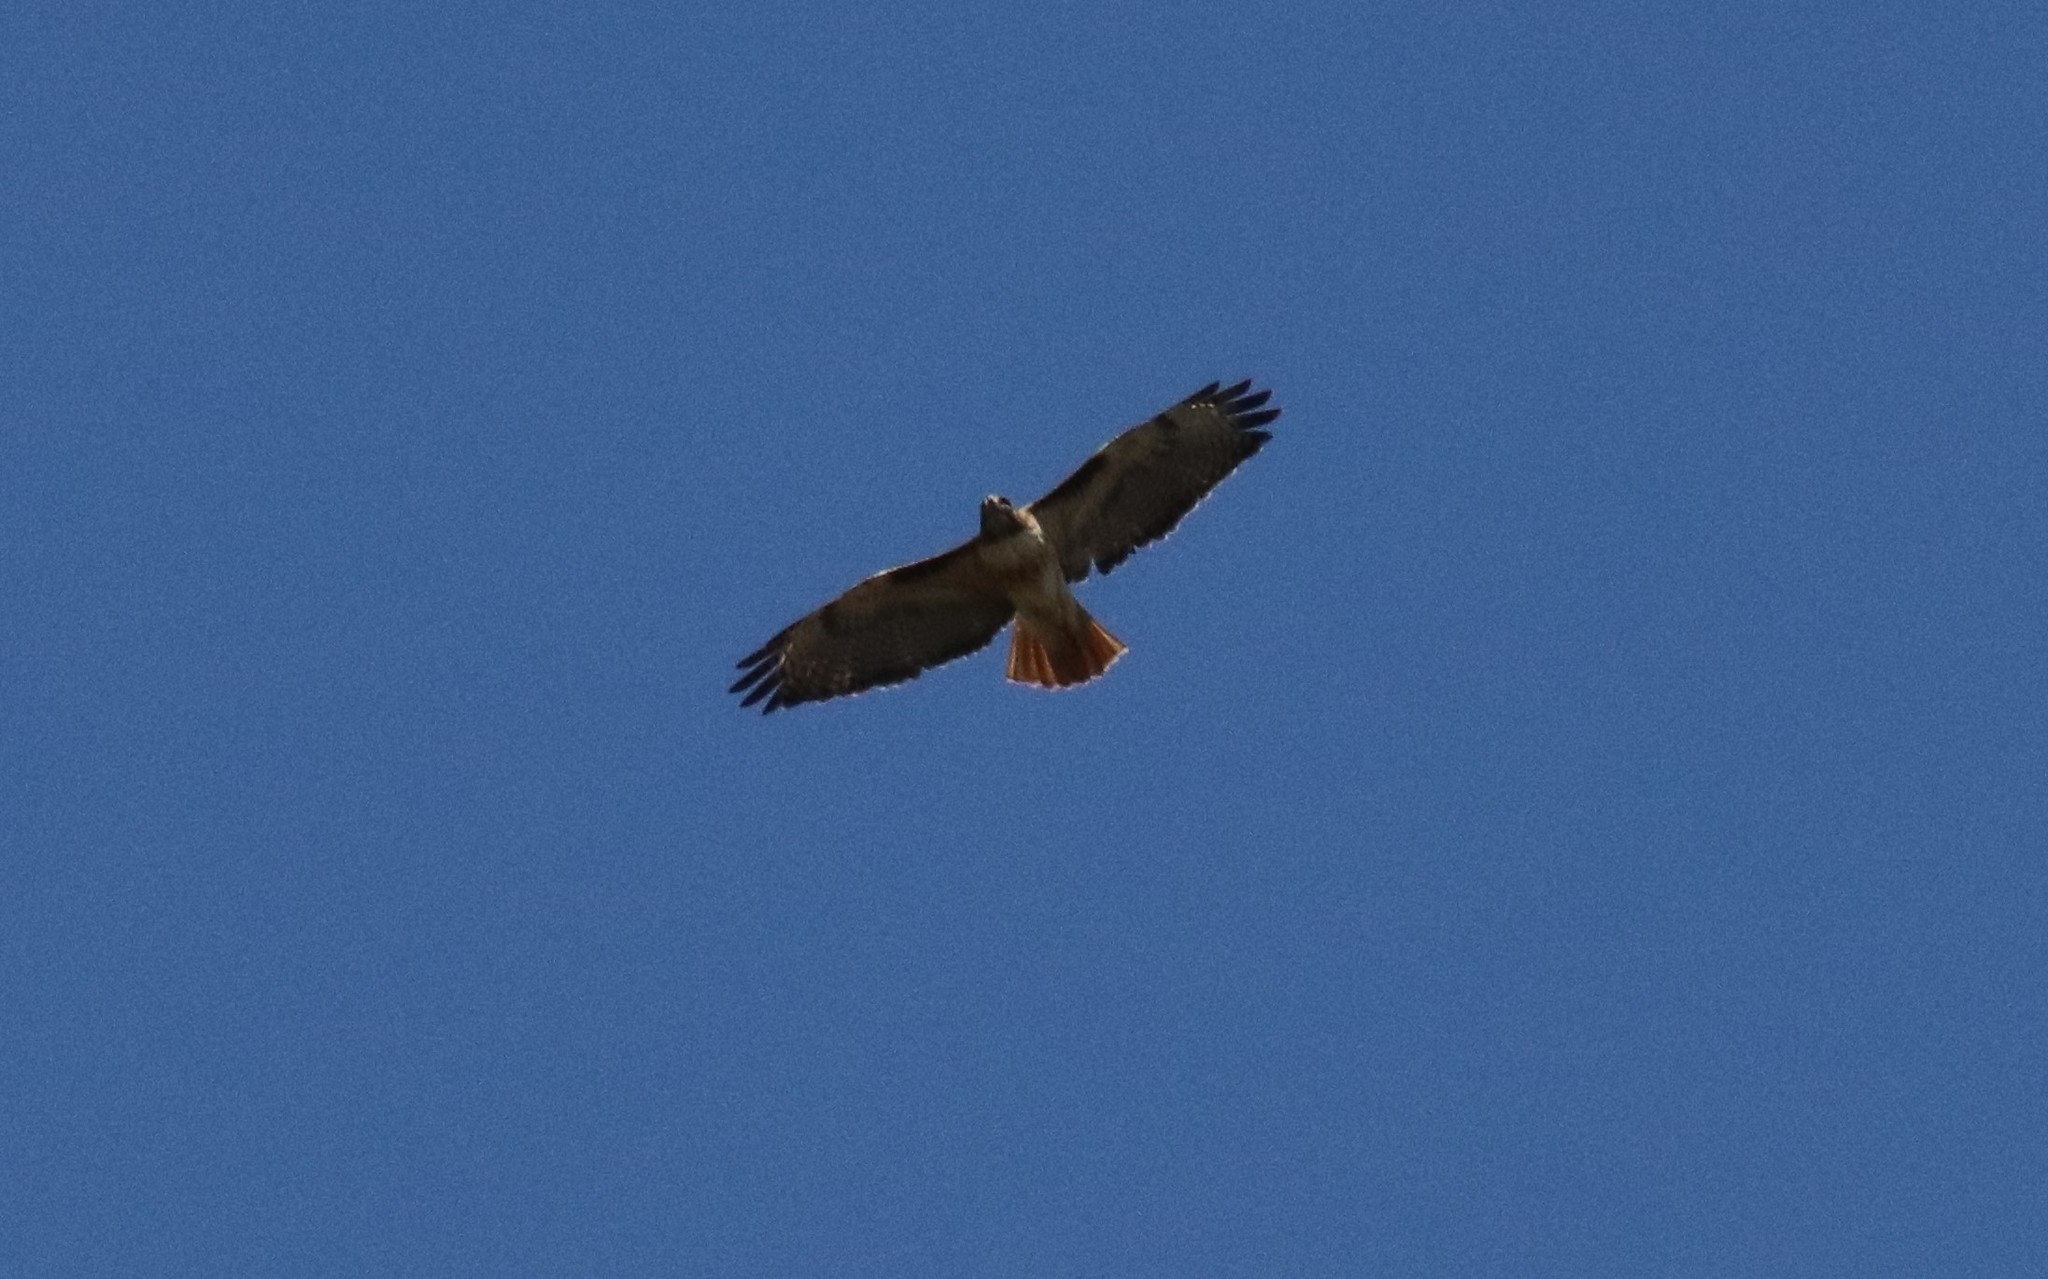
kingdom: Animalia
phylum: Chordata
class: Aves
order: Accipitriformes
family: Accipitridae
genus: Buteo
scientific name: Buteo jamaicensis
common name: Red-tailed hawk
